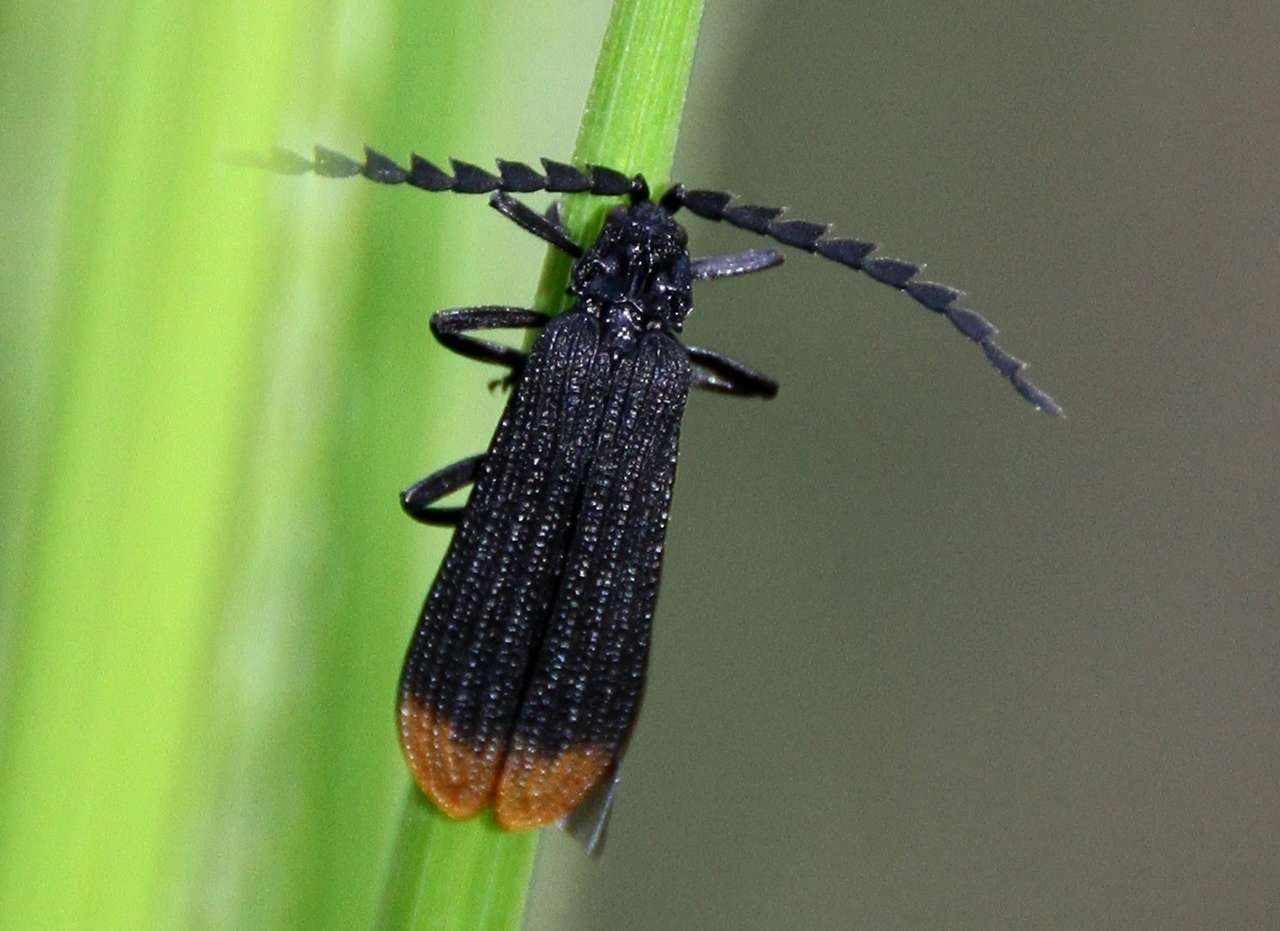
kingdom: Animalia
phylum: Arthropoda
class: Insecta
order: Coleoptera
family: Lycidae
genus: Diatrichalus
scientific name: Diatrichalus
